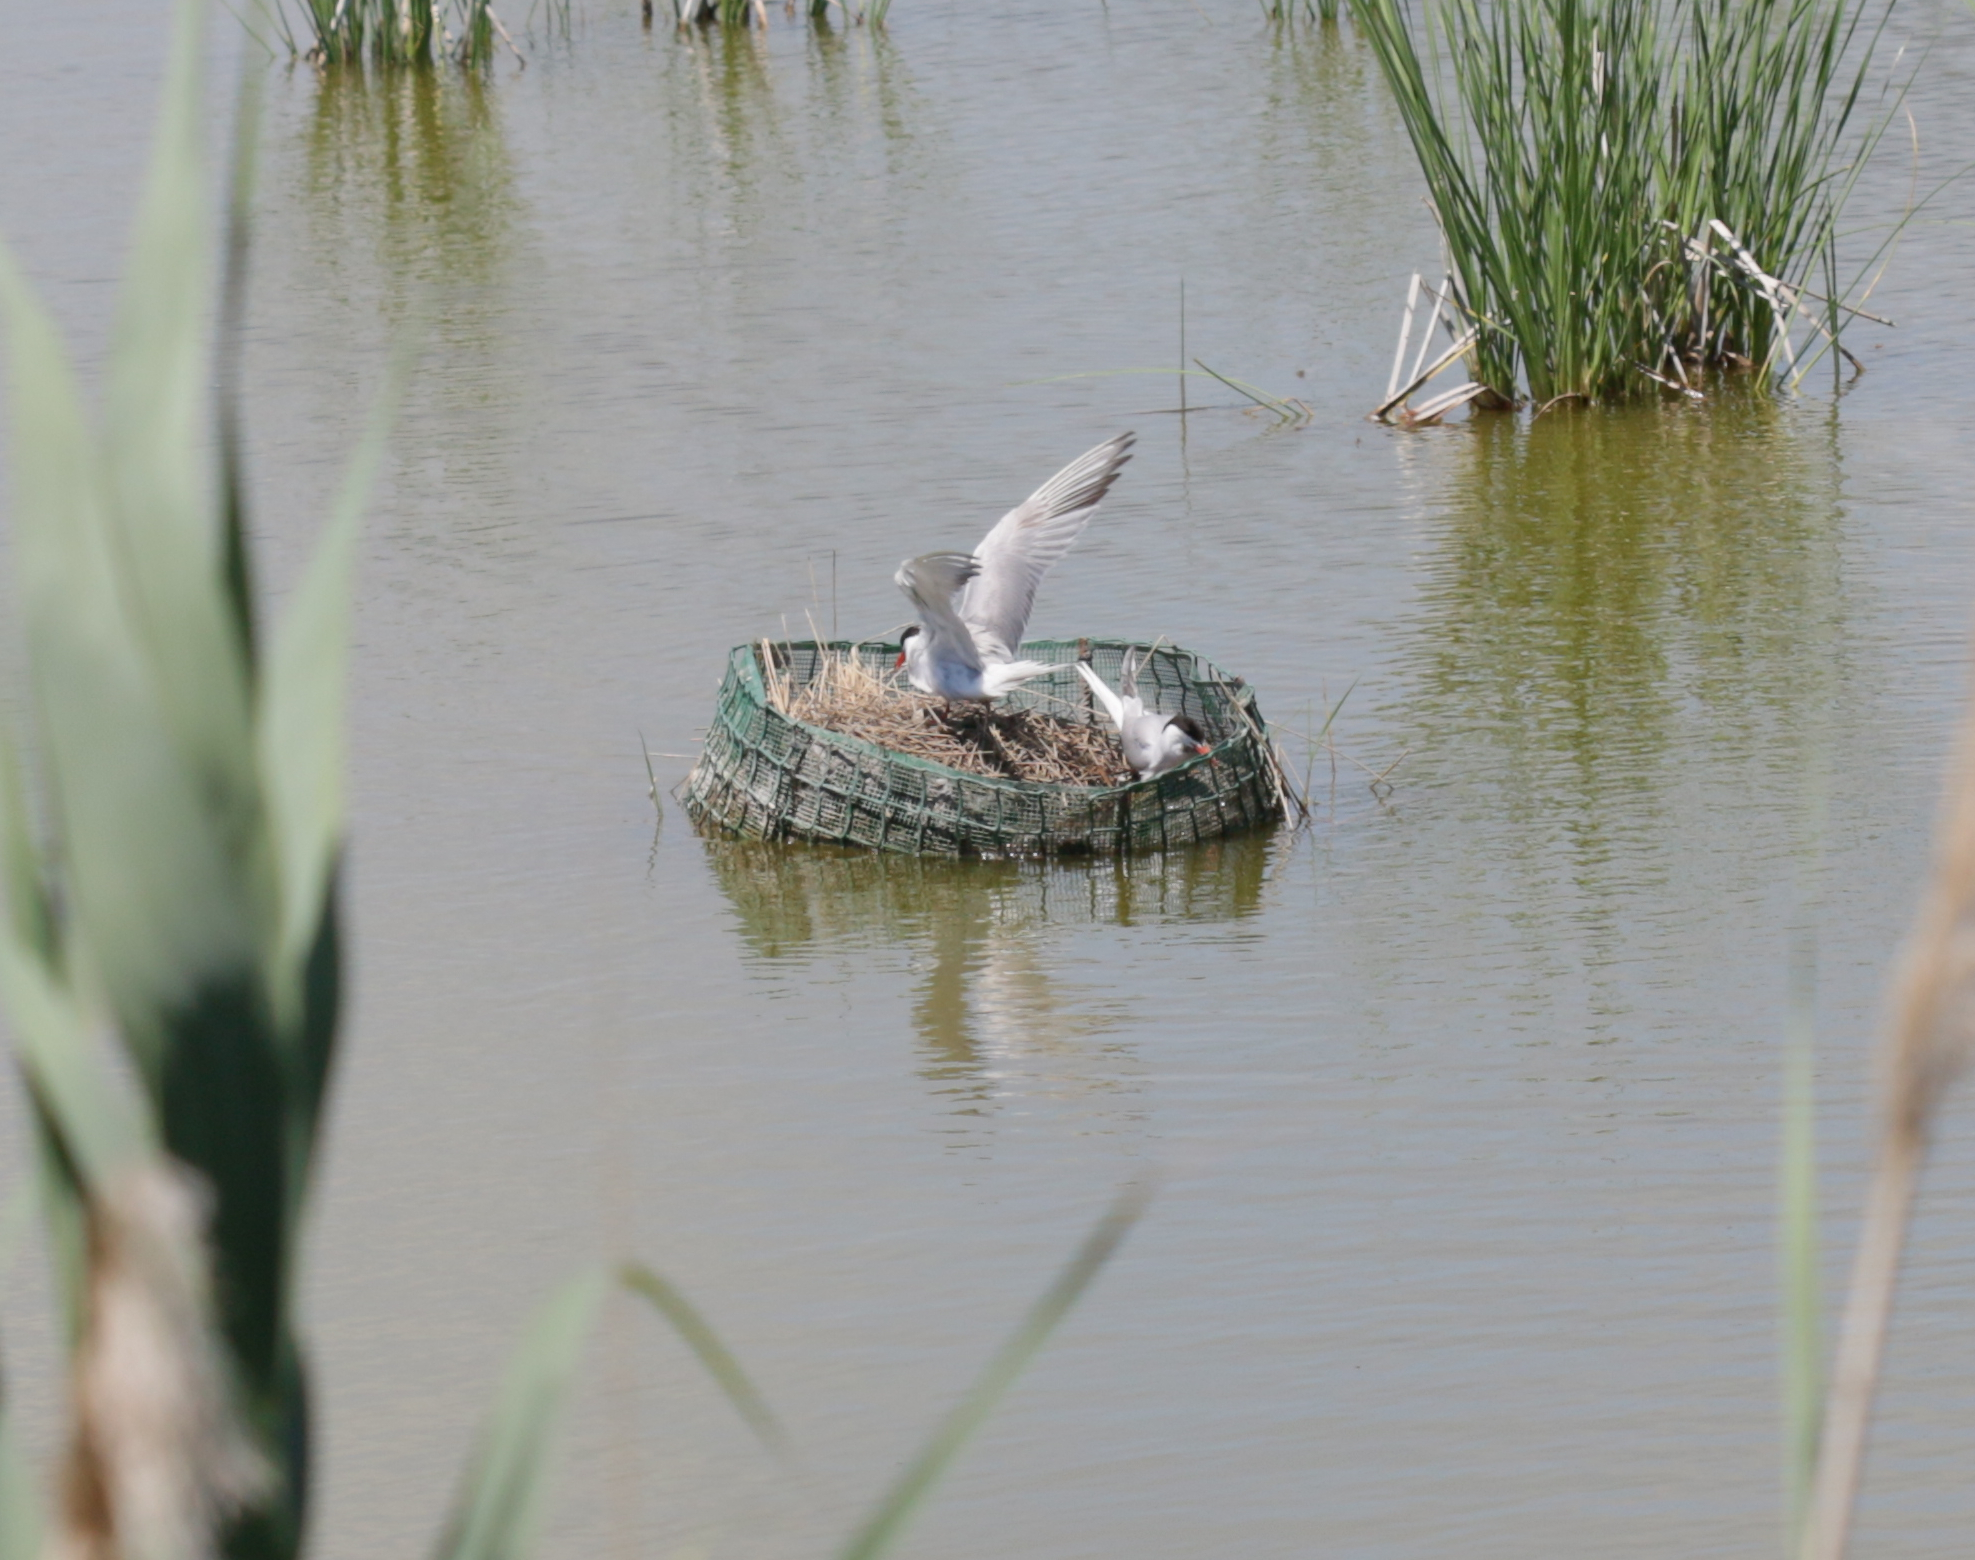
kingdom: Animalia
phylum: Chordata
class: Aves
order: Charadriiformes
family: Laridae
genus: Sterna
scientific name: Sterna hirundo
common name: Common tern
